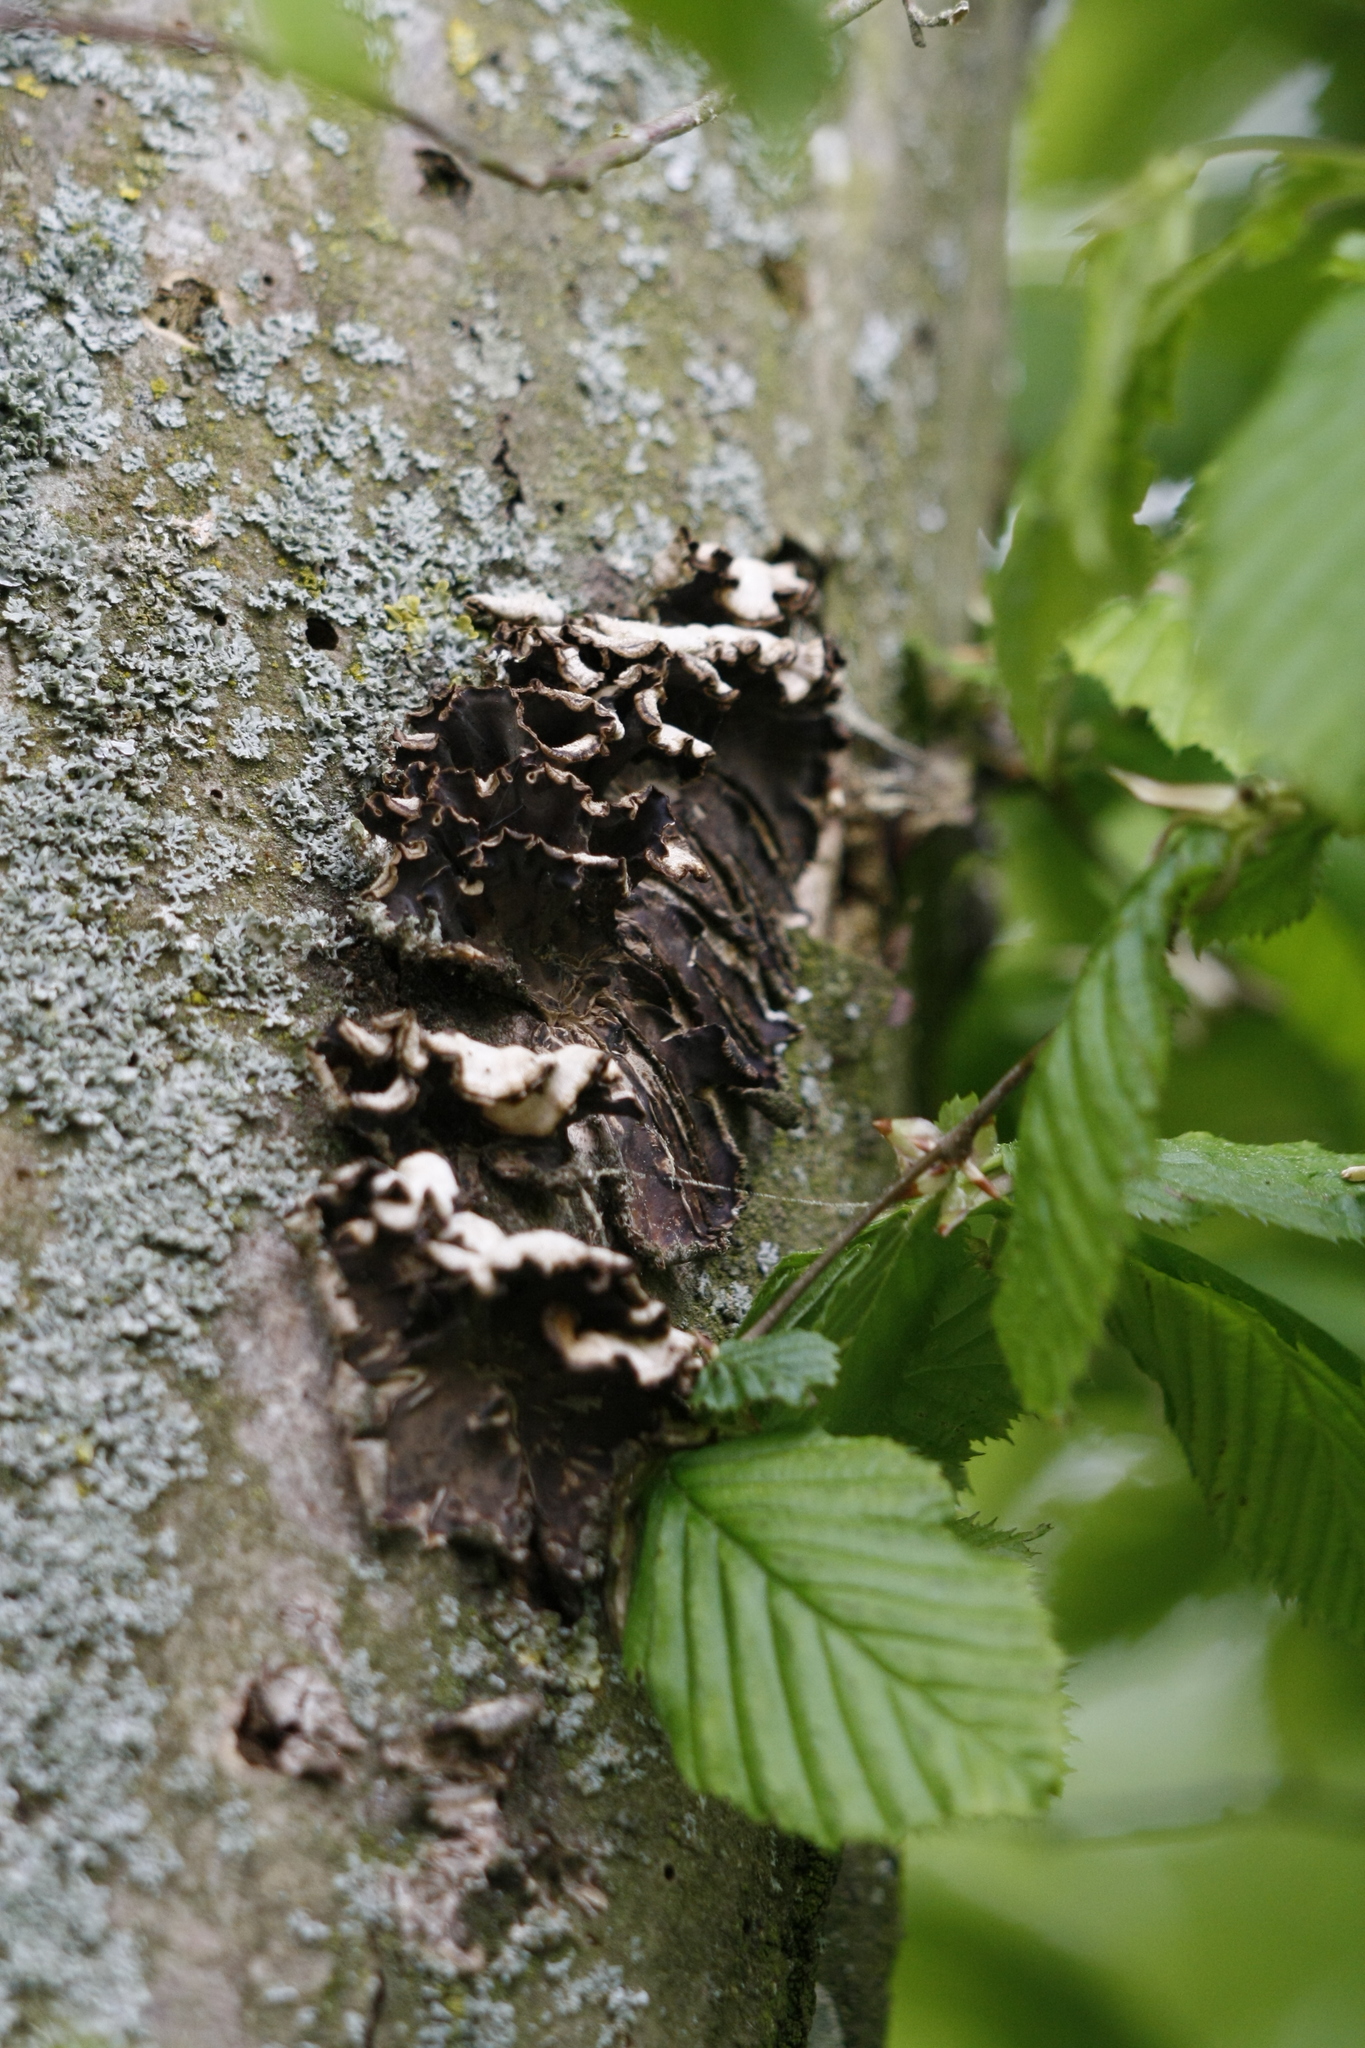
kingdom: Fungi
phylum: Basidiomycota
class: Agaricomycetes
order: Agaricales
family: Cyphellaceae
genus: Chondrostereum
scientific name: Chondrostereum purpureum
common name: Silver leaf disease
